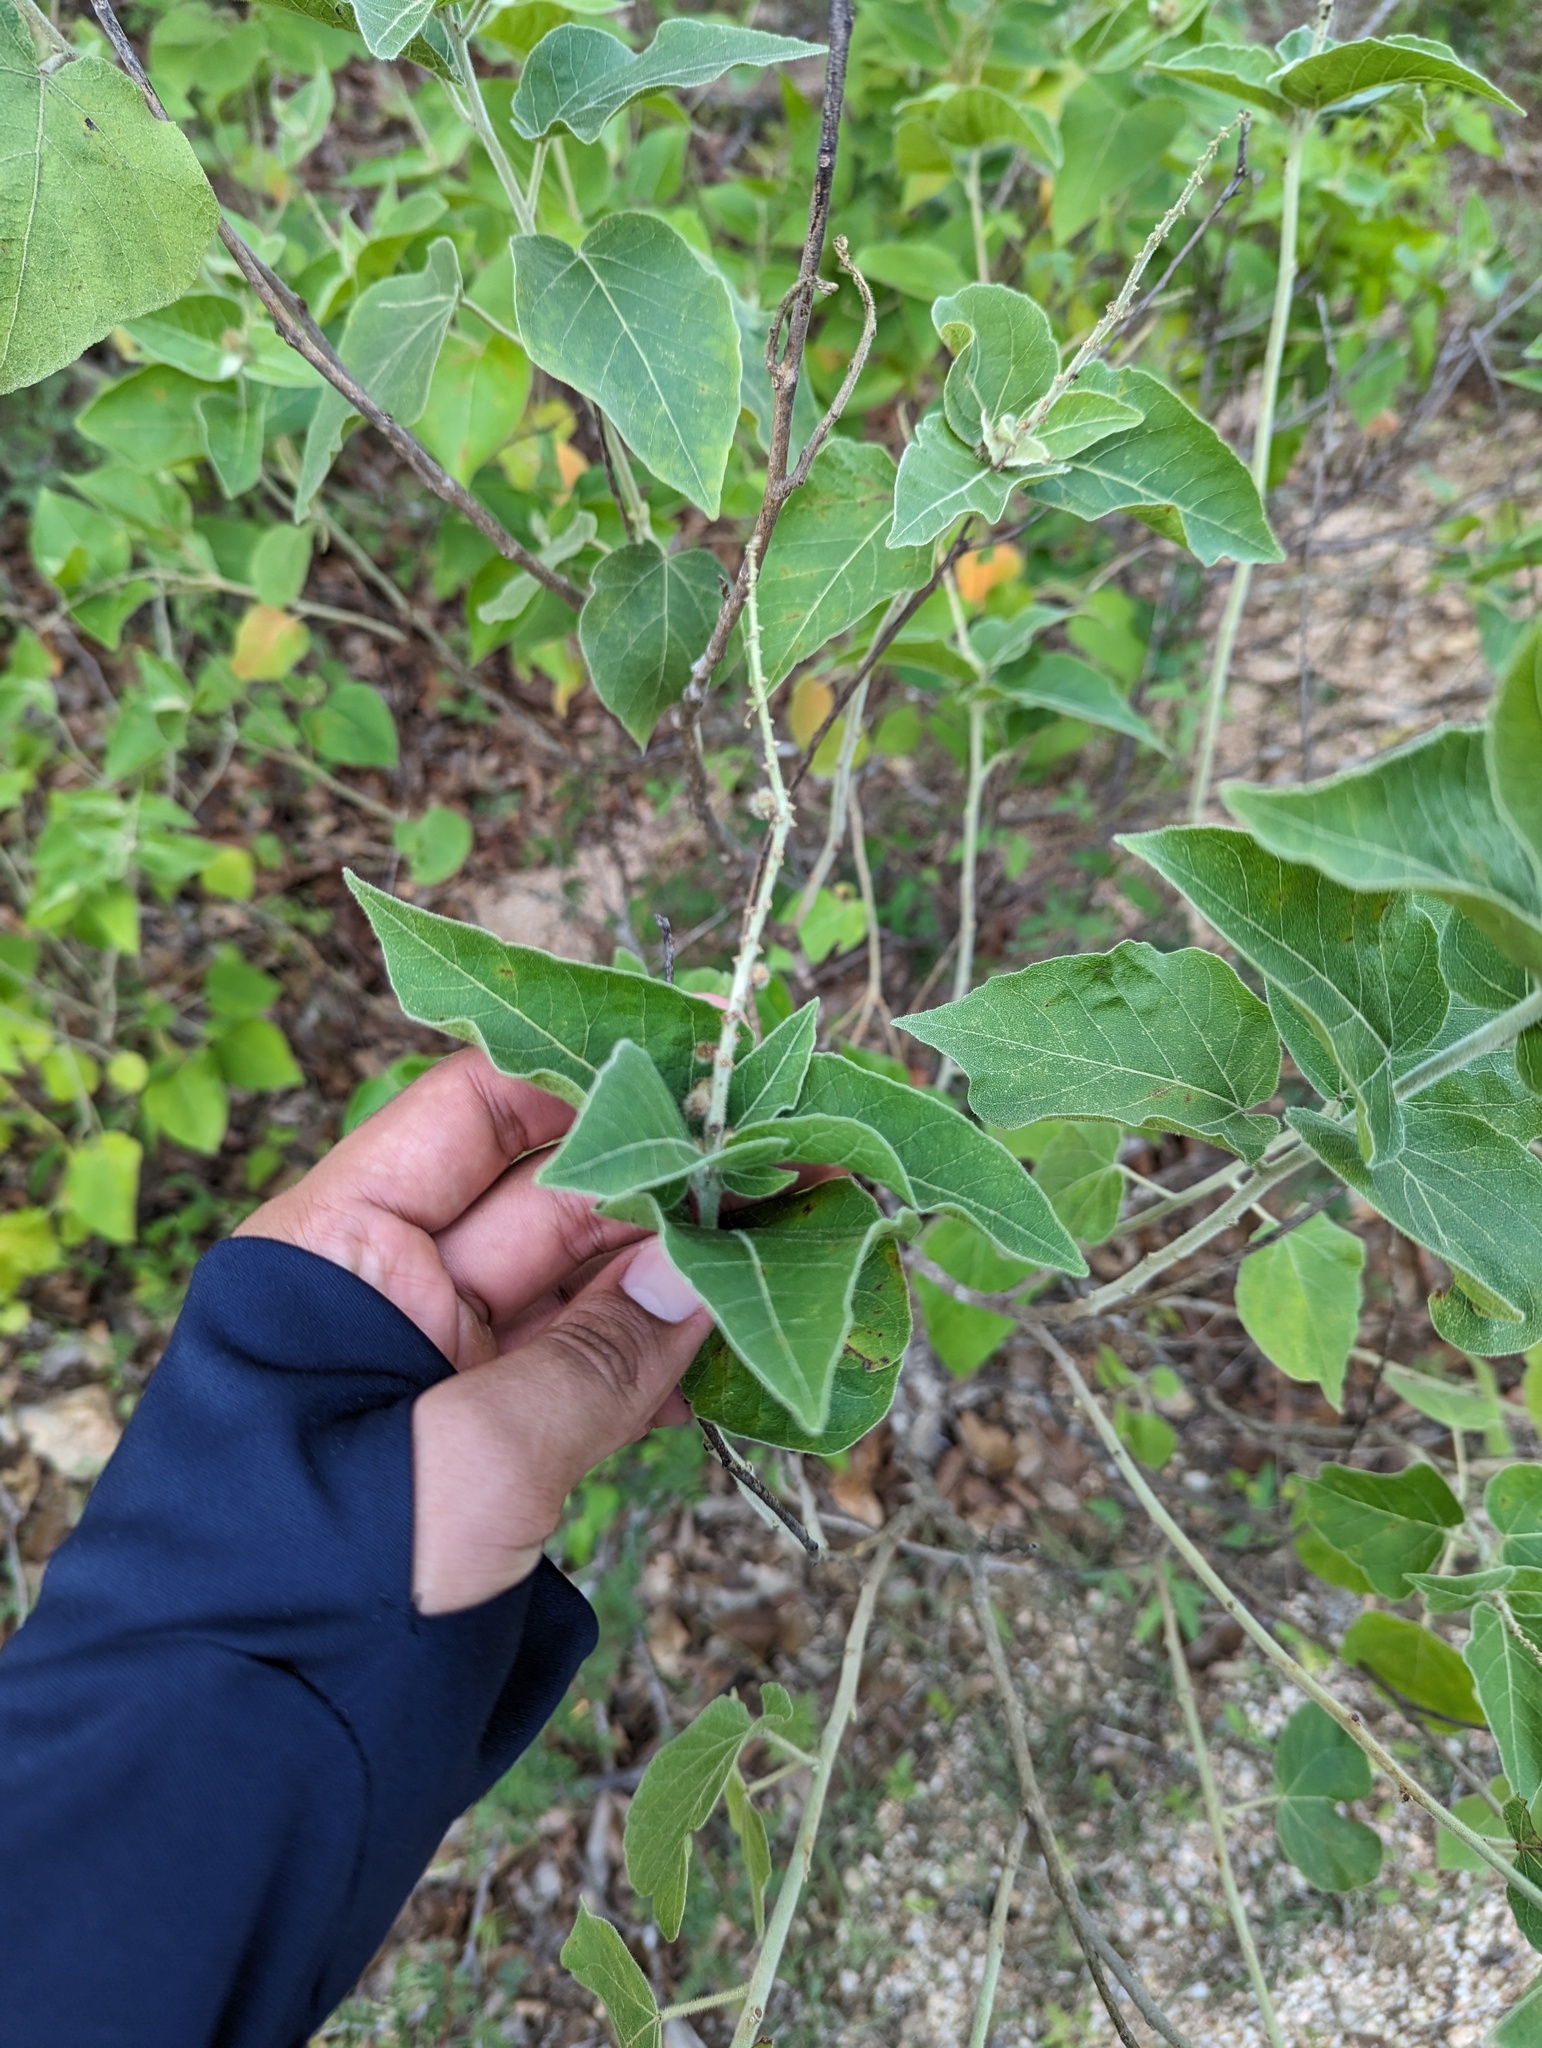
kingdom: Plantae
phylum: Tracheophyta
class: Magnoliopsida
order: Malpighiales
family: Euphorbiaceae
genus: Croton
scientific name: Croton magdalenae
